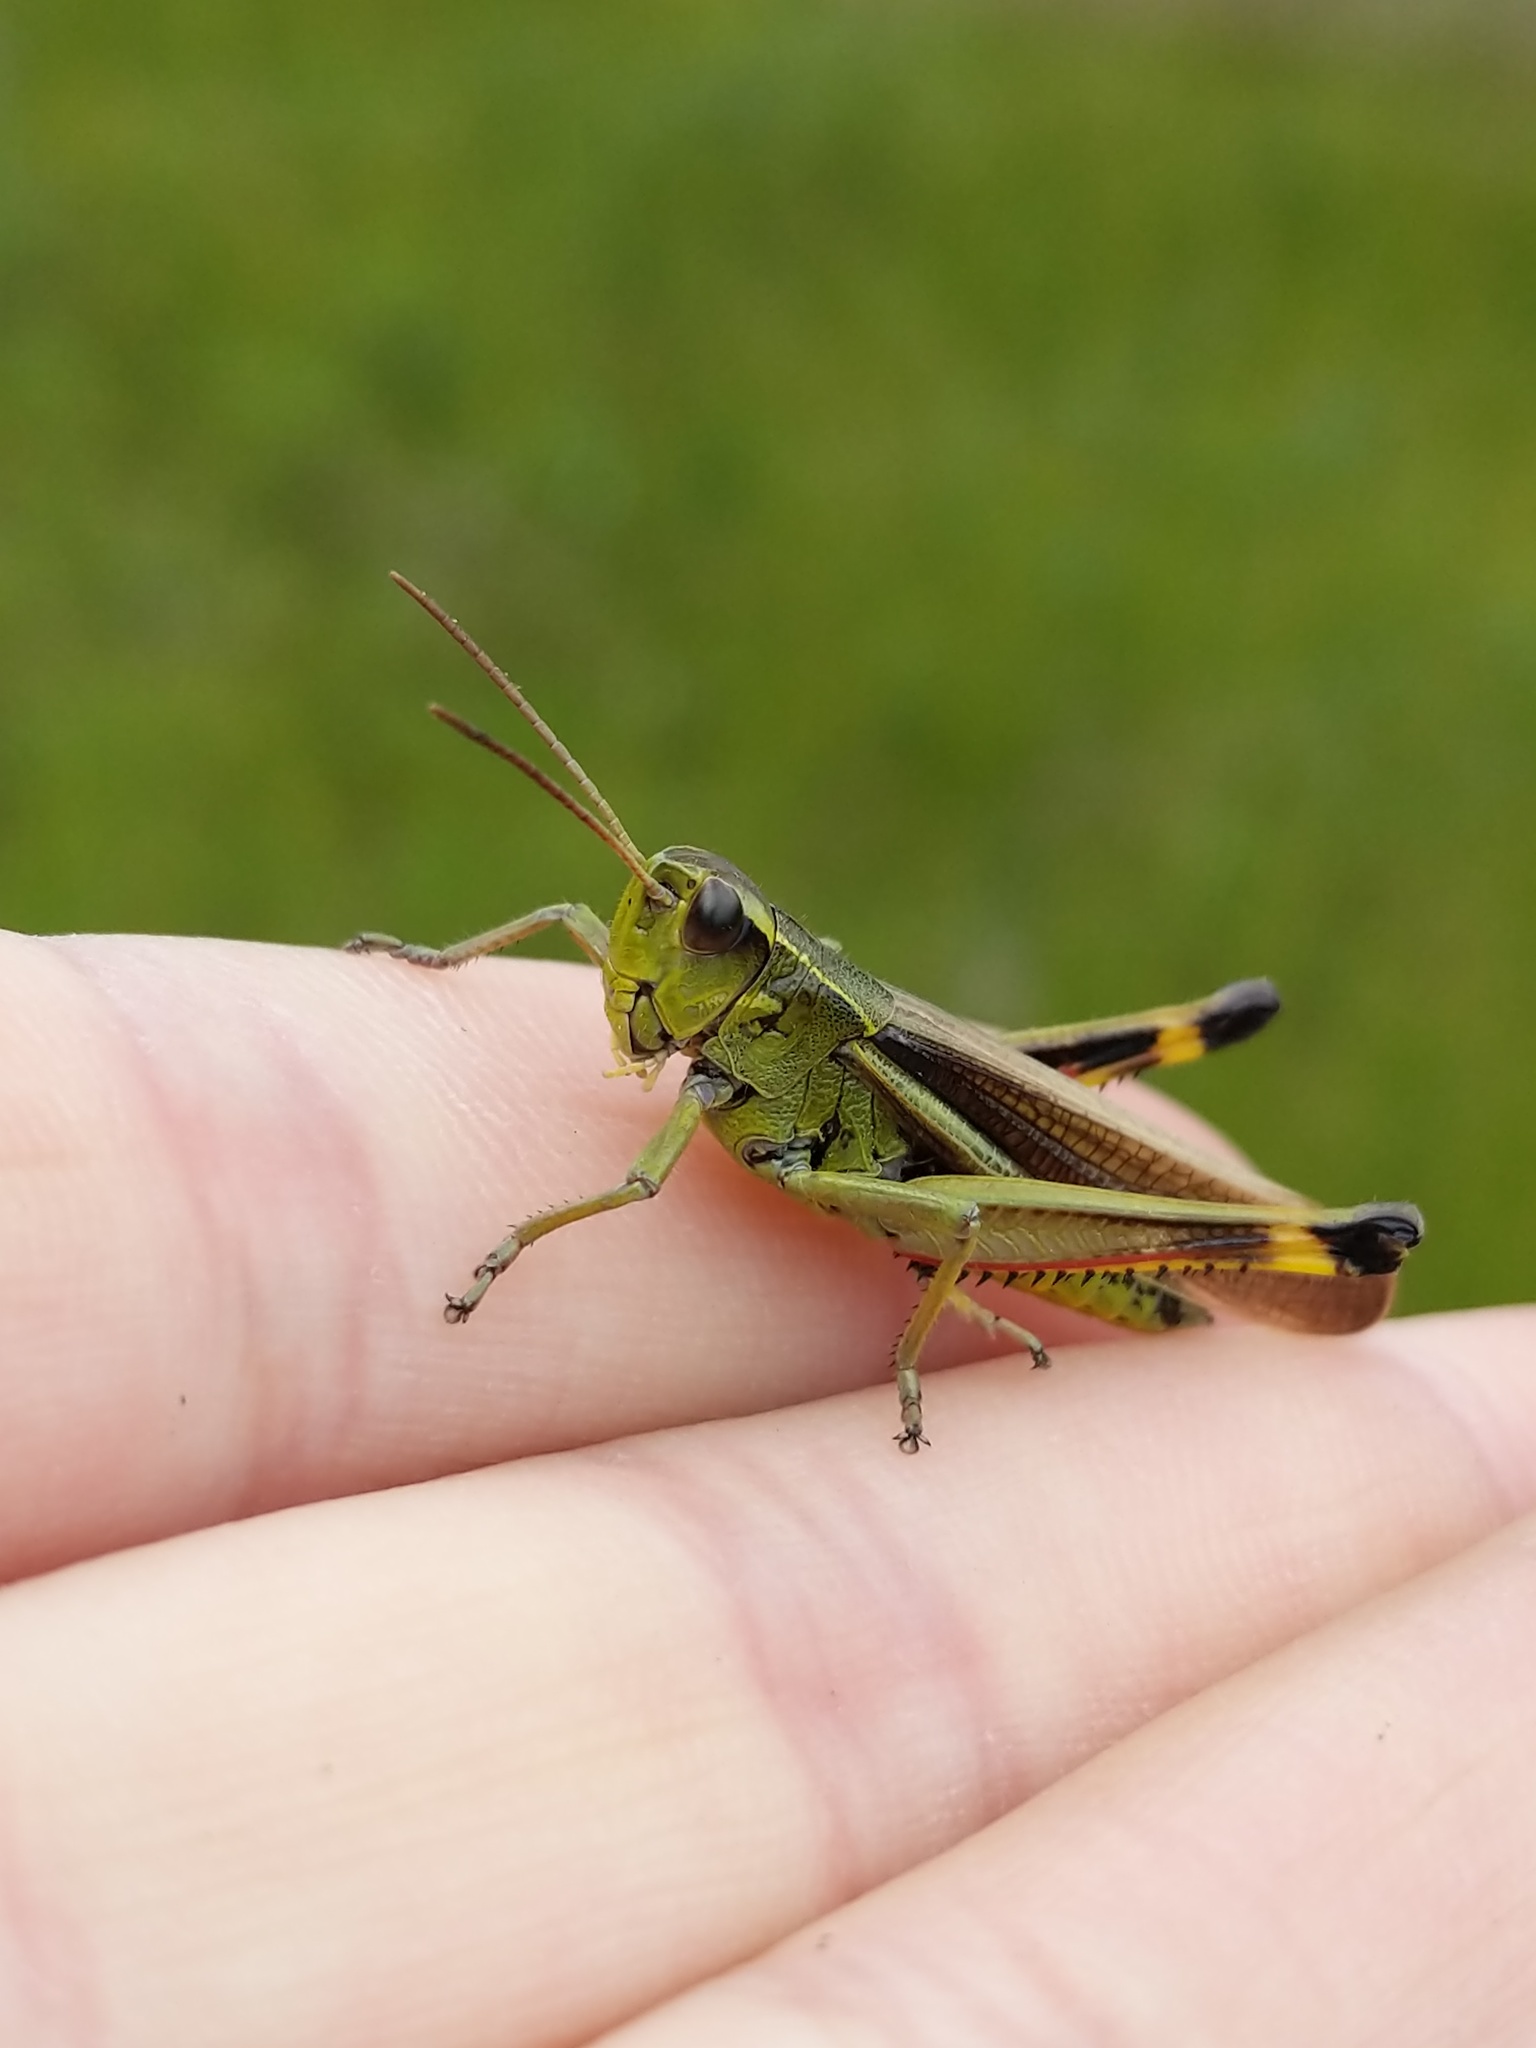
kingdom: Animalia
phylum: Arthropoda
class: Insecta
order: Orthoptera
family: Acrididae
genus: Stethophyma
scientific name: Stethophyma lineatum
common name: Striped sedge locust
